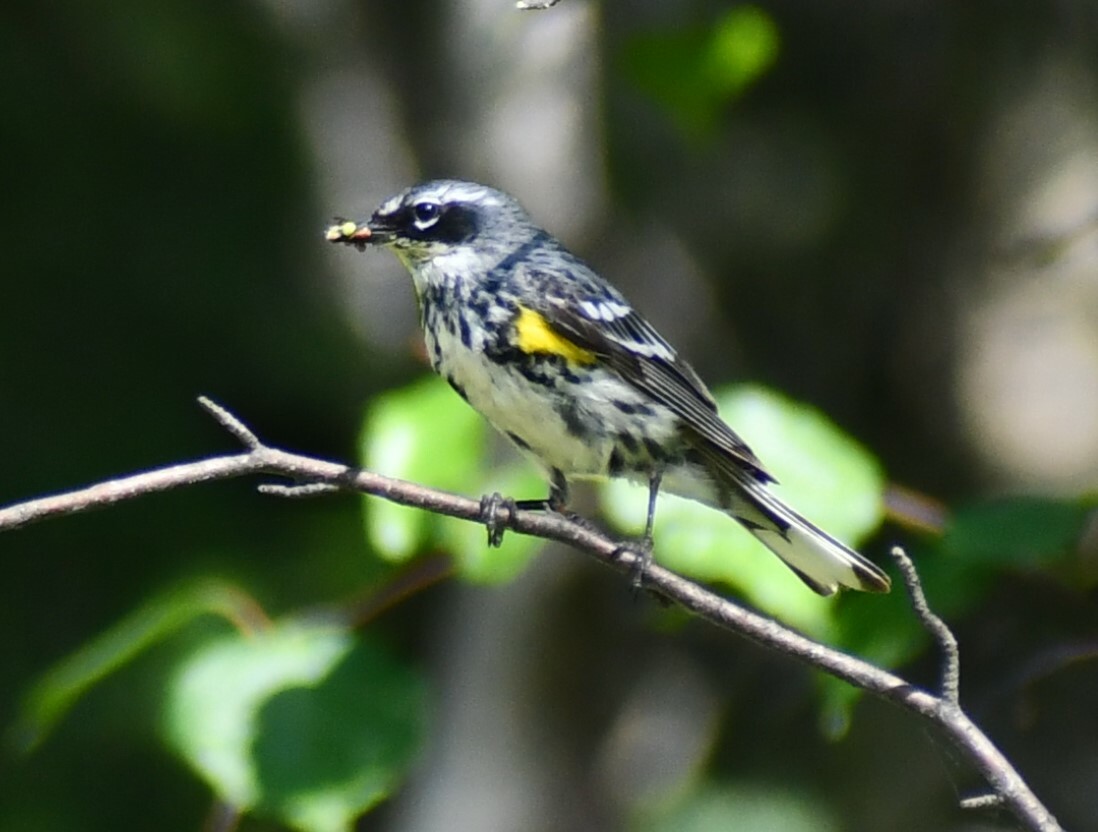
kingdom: Animalia
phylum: Chordata
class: Aves
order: Passeriformes
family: Parulidae
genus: Setophaga
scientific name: Setophaga coronata
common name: Myrtle warbler
